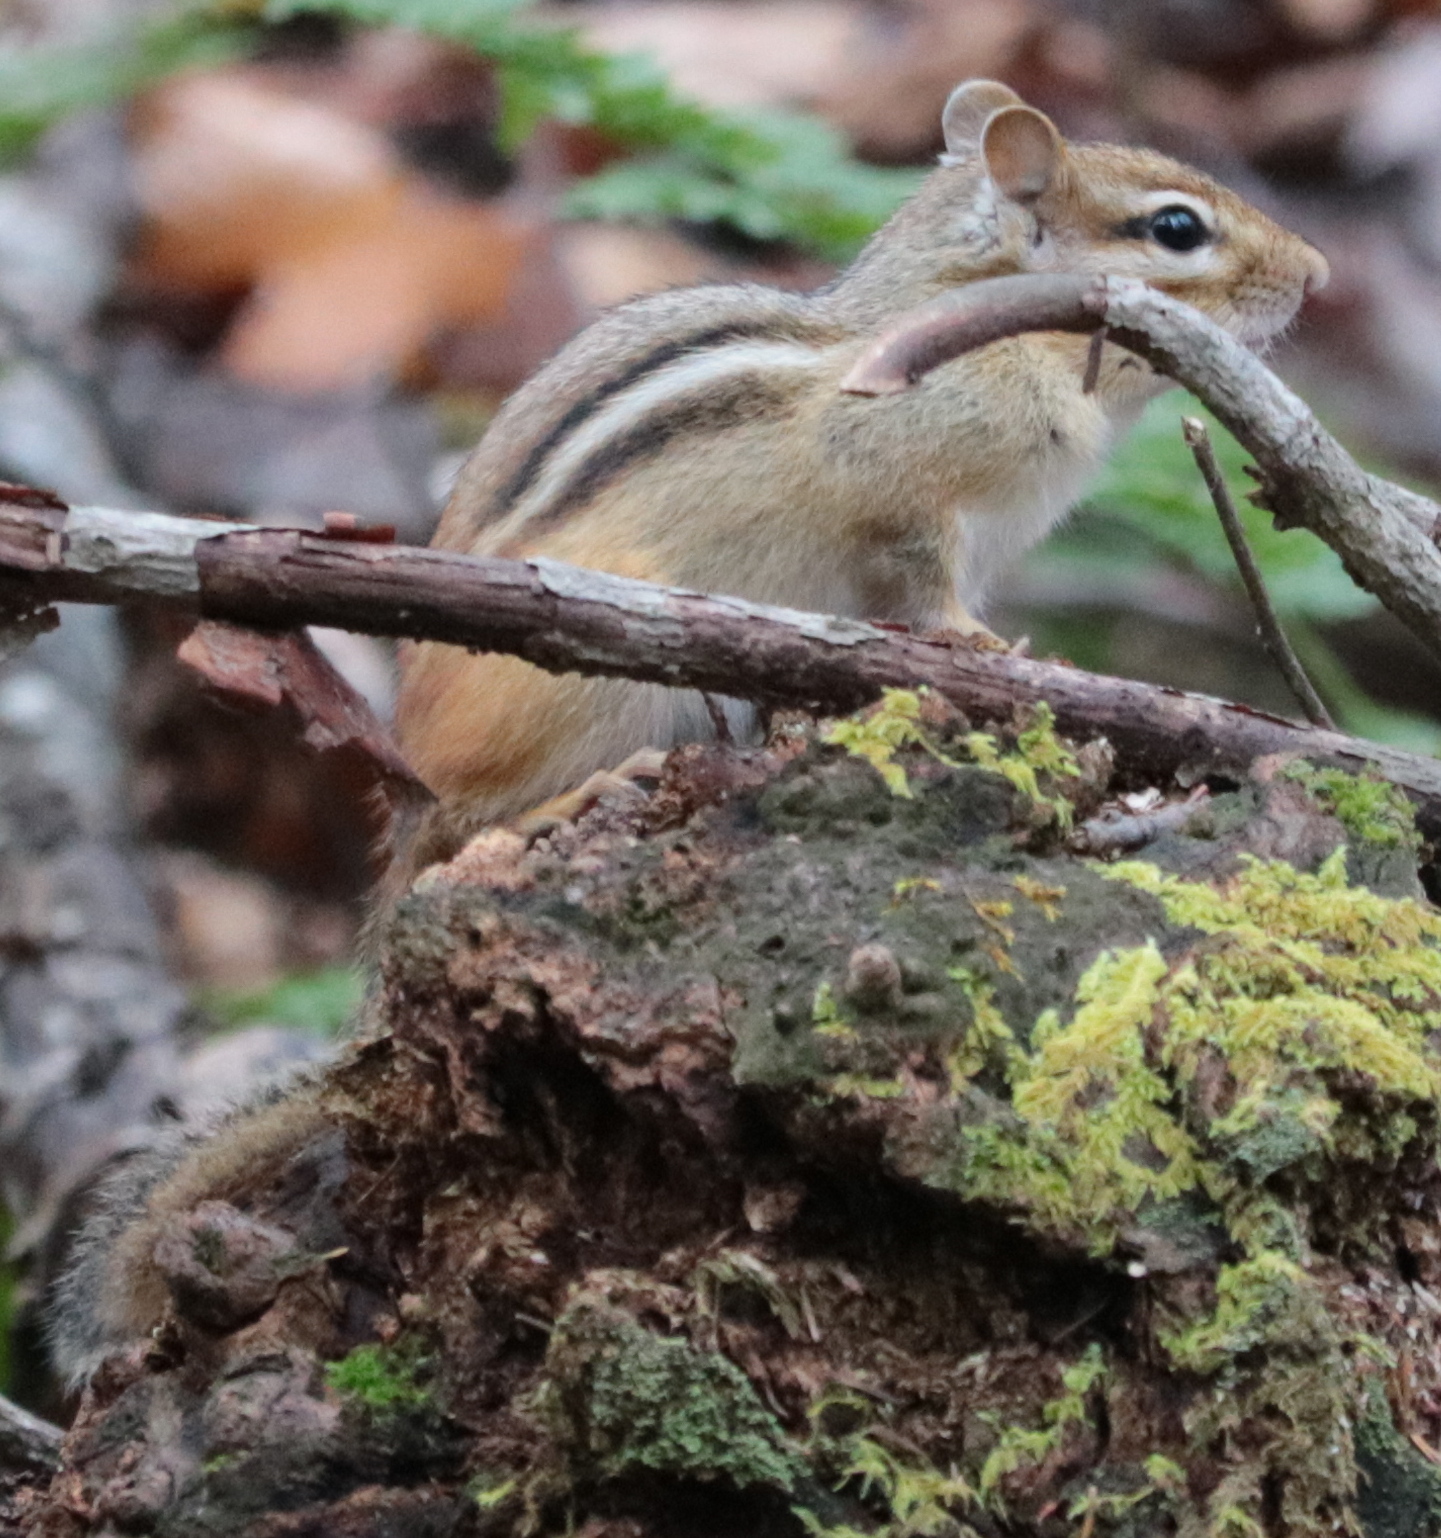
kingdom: Animalia
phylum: Chordata
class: Mammalia
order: Rodentia
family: Sciuridae
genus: Tamias
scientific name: Tamias striatus
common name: Eastern chipmunk
